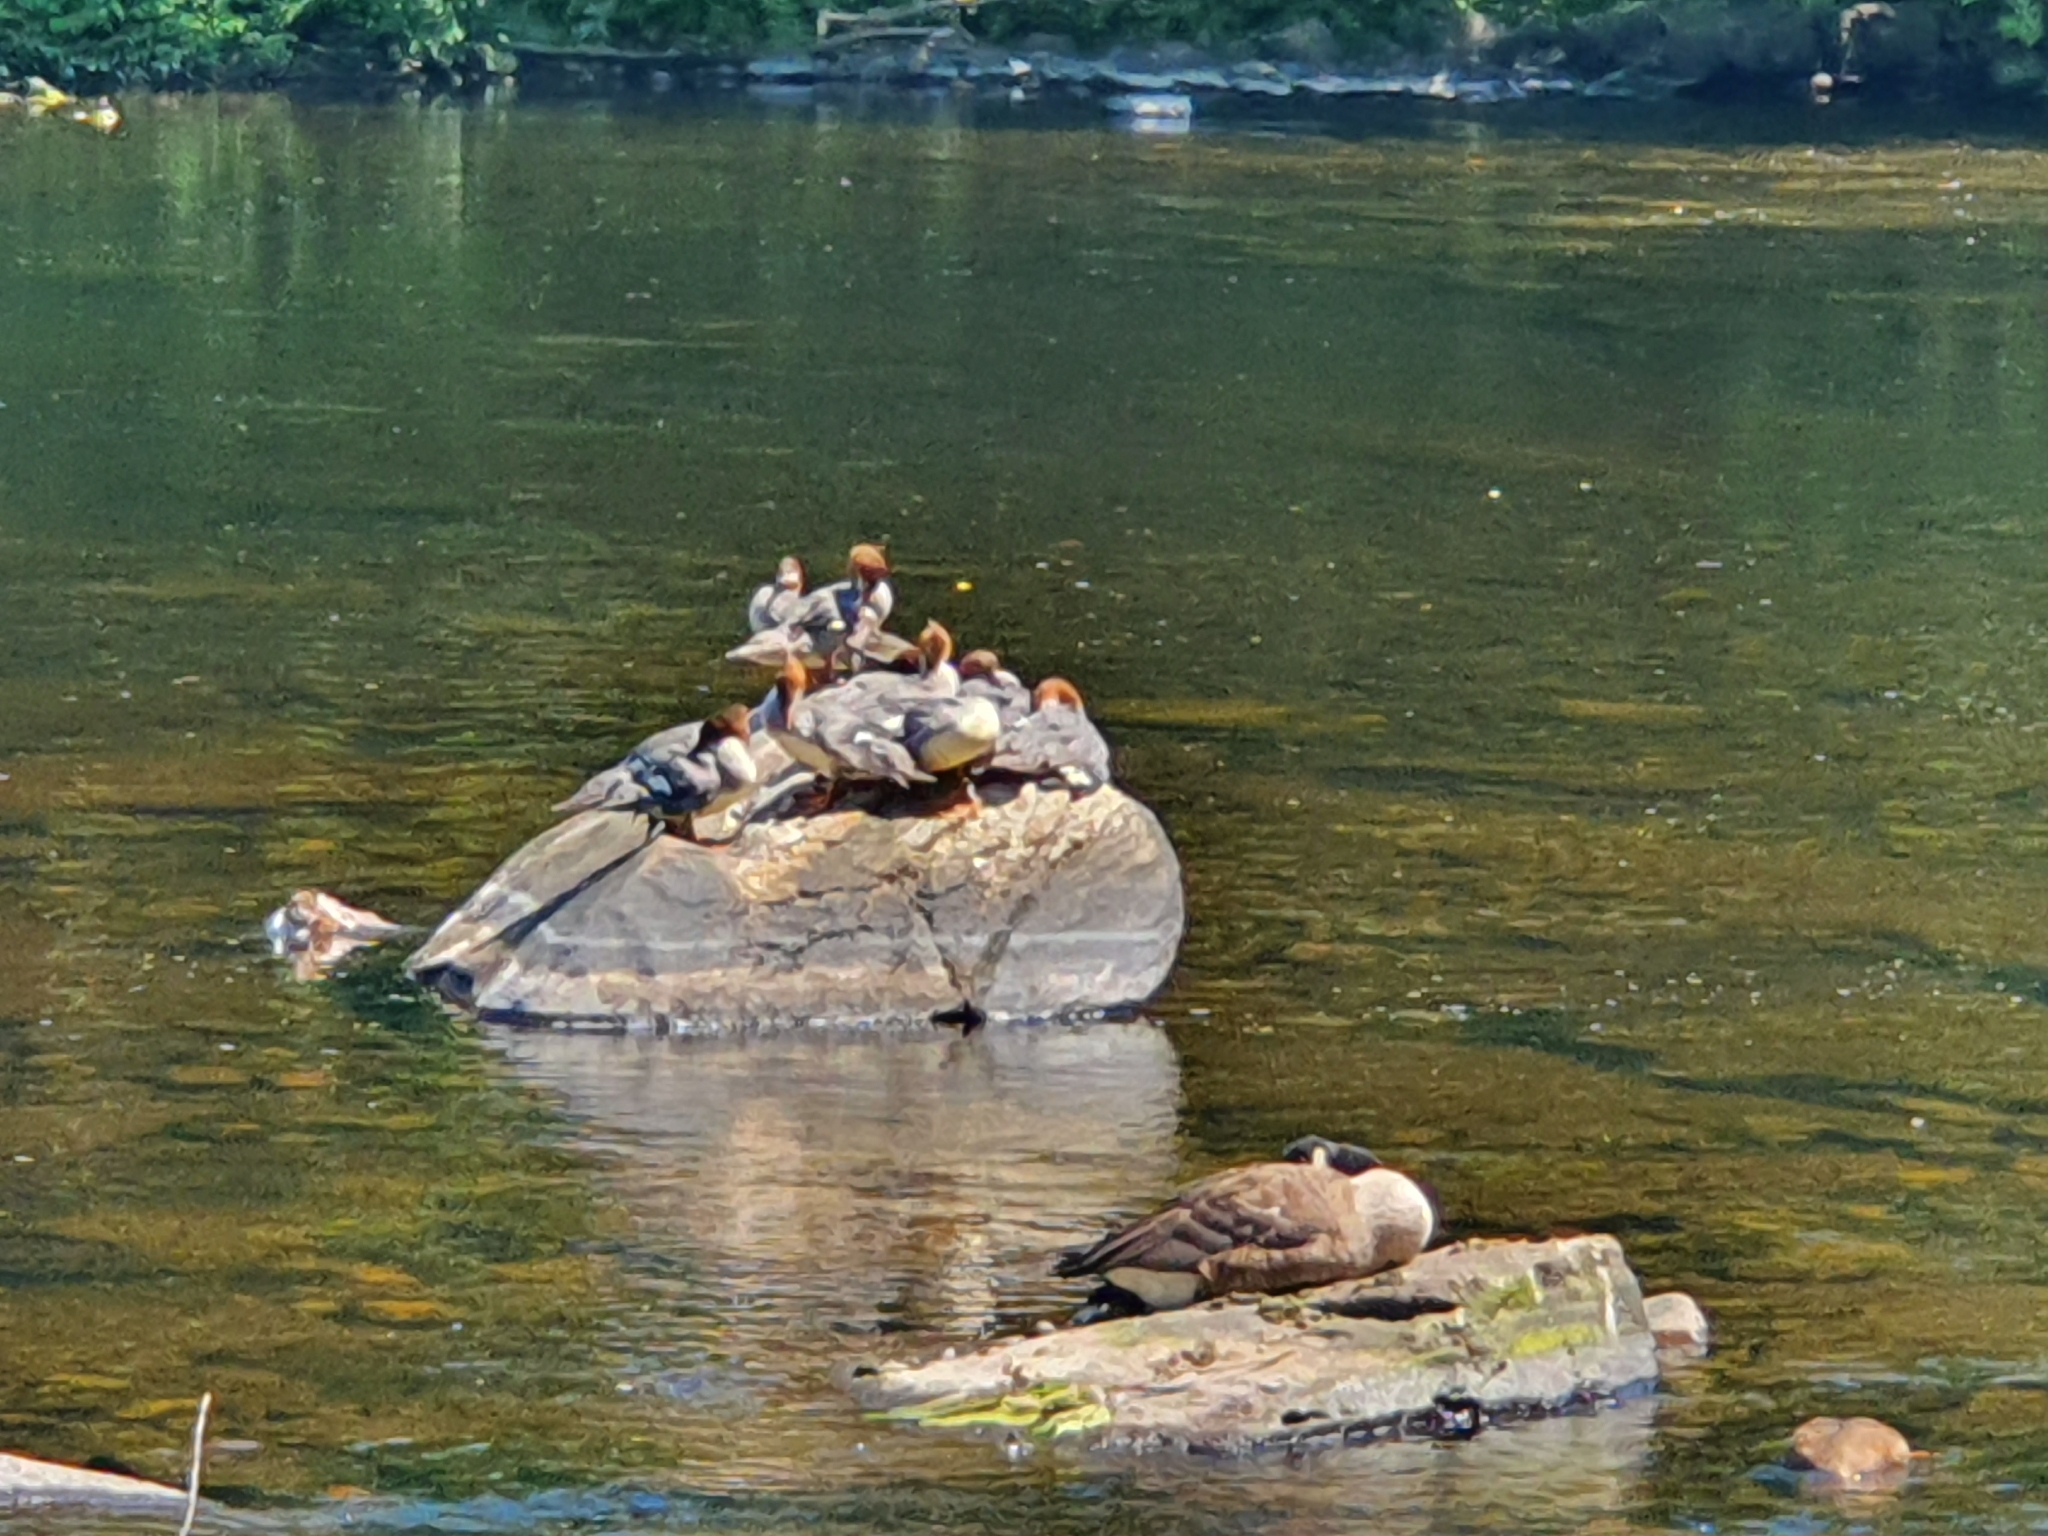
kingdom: Animalia
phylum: Chordata
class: Aves
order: Anseriformes
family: Anatidae
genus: Mergus
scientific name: Mergus merganser
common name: Common merganser
